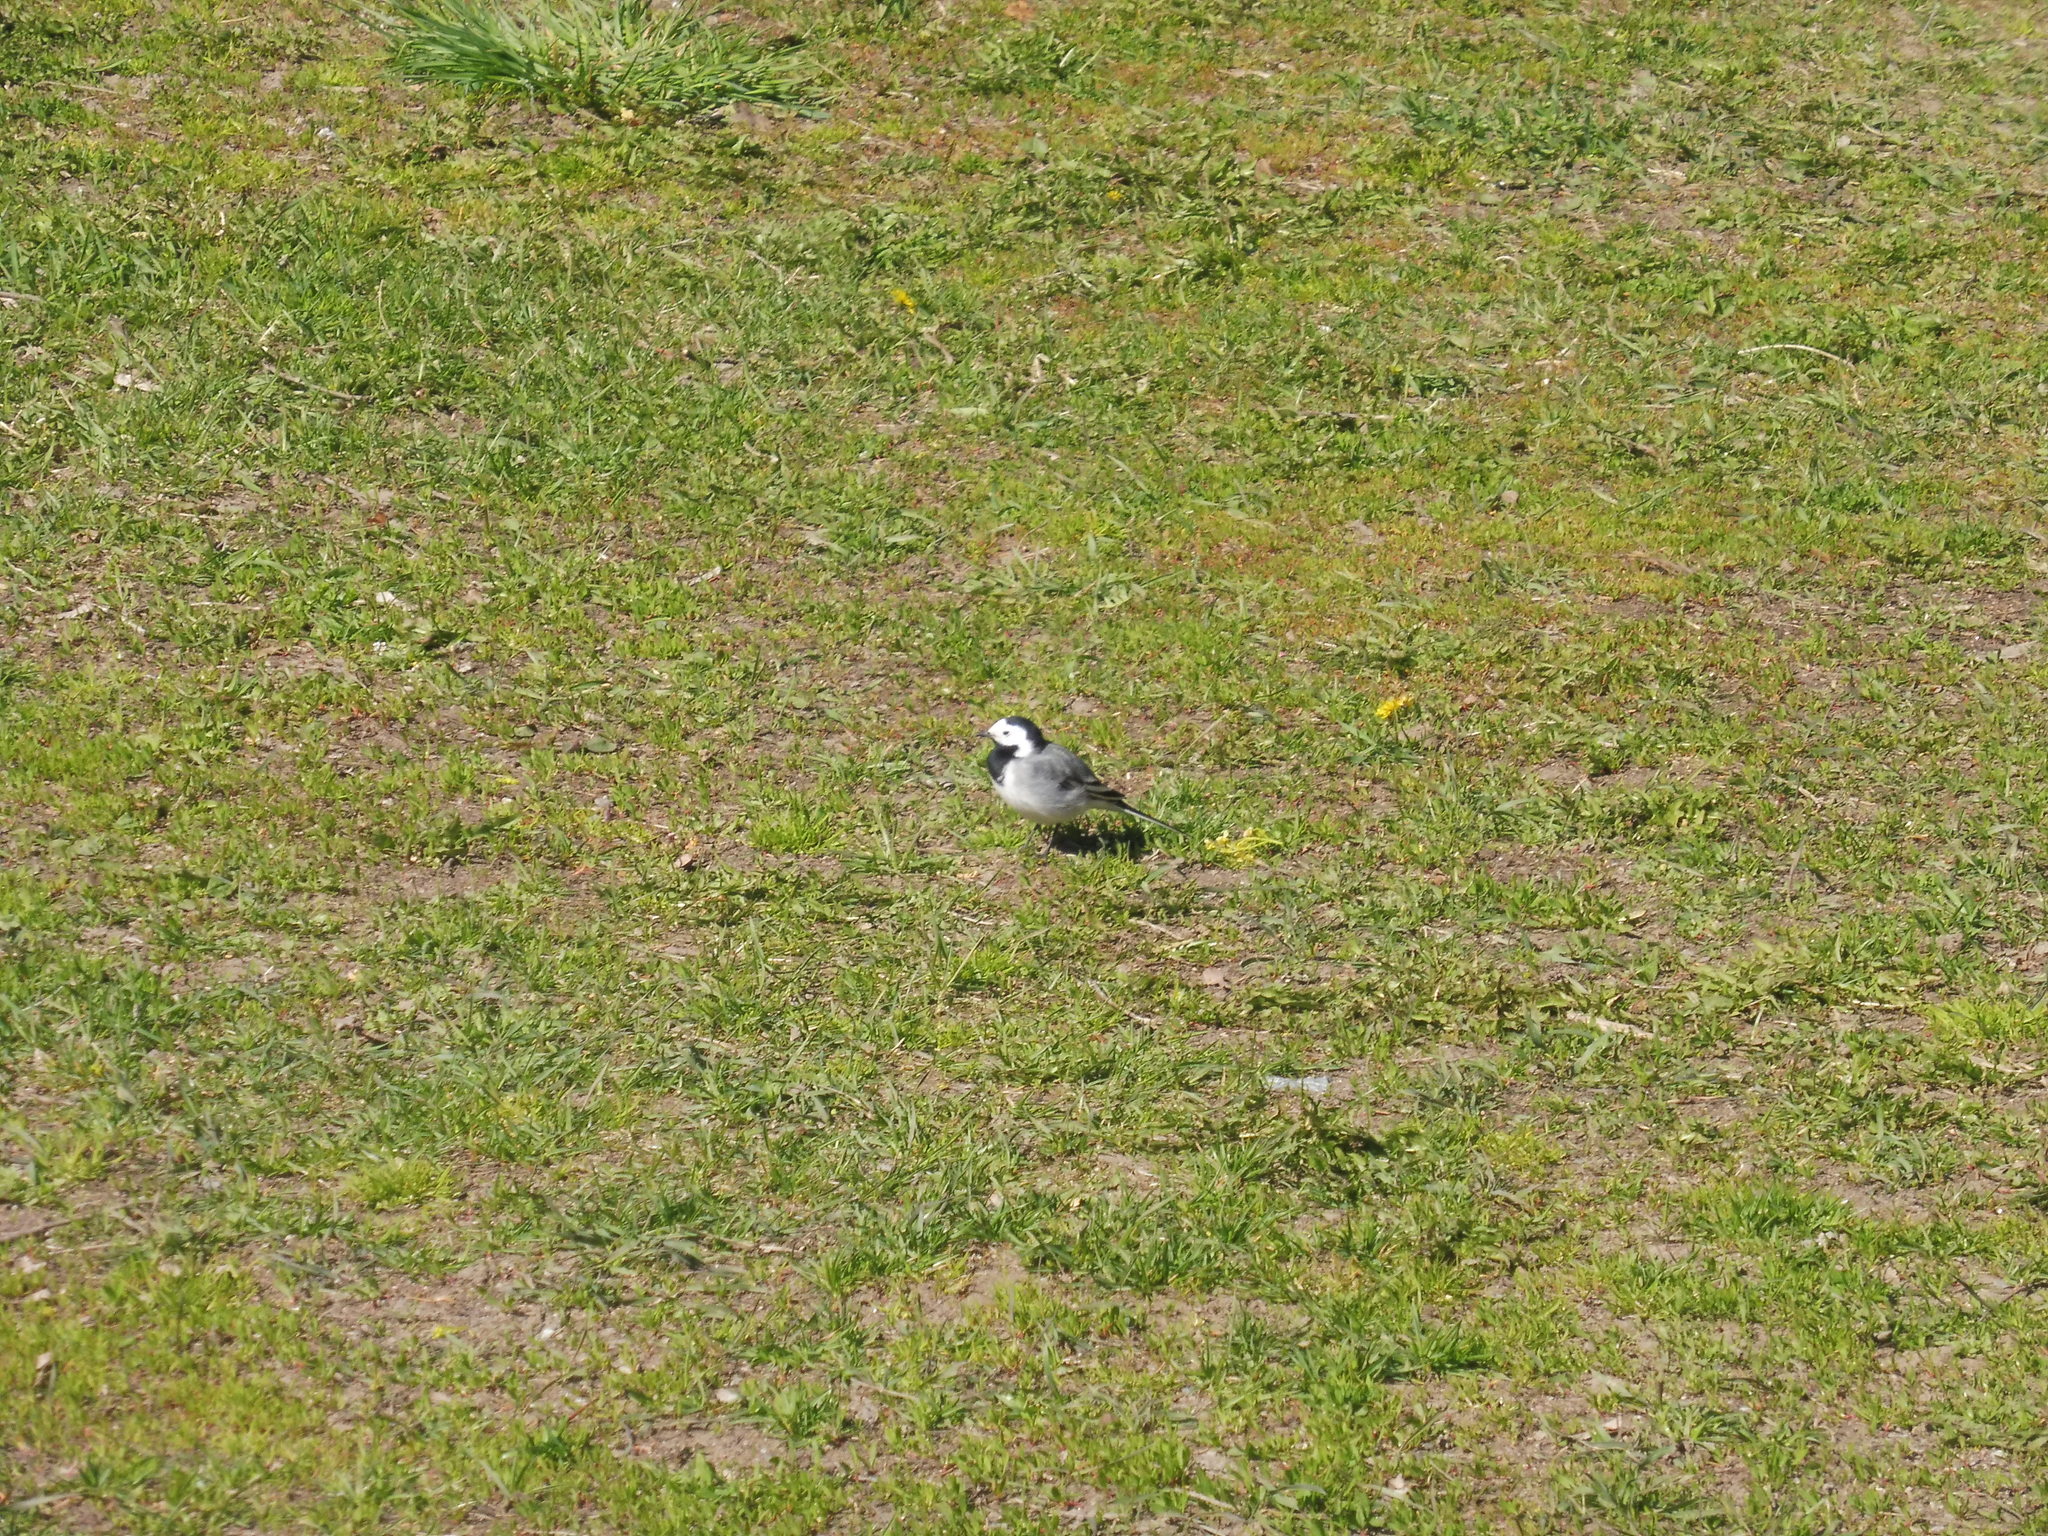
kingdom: Animalia
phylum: Chordata
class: Aves
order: Passeriformes
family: Motacillidae
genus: Motacilla
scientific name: Motacilla alba
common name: White wagtail
